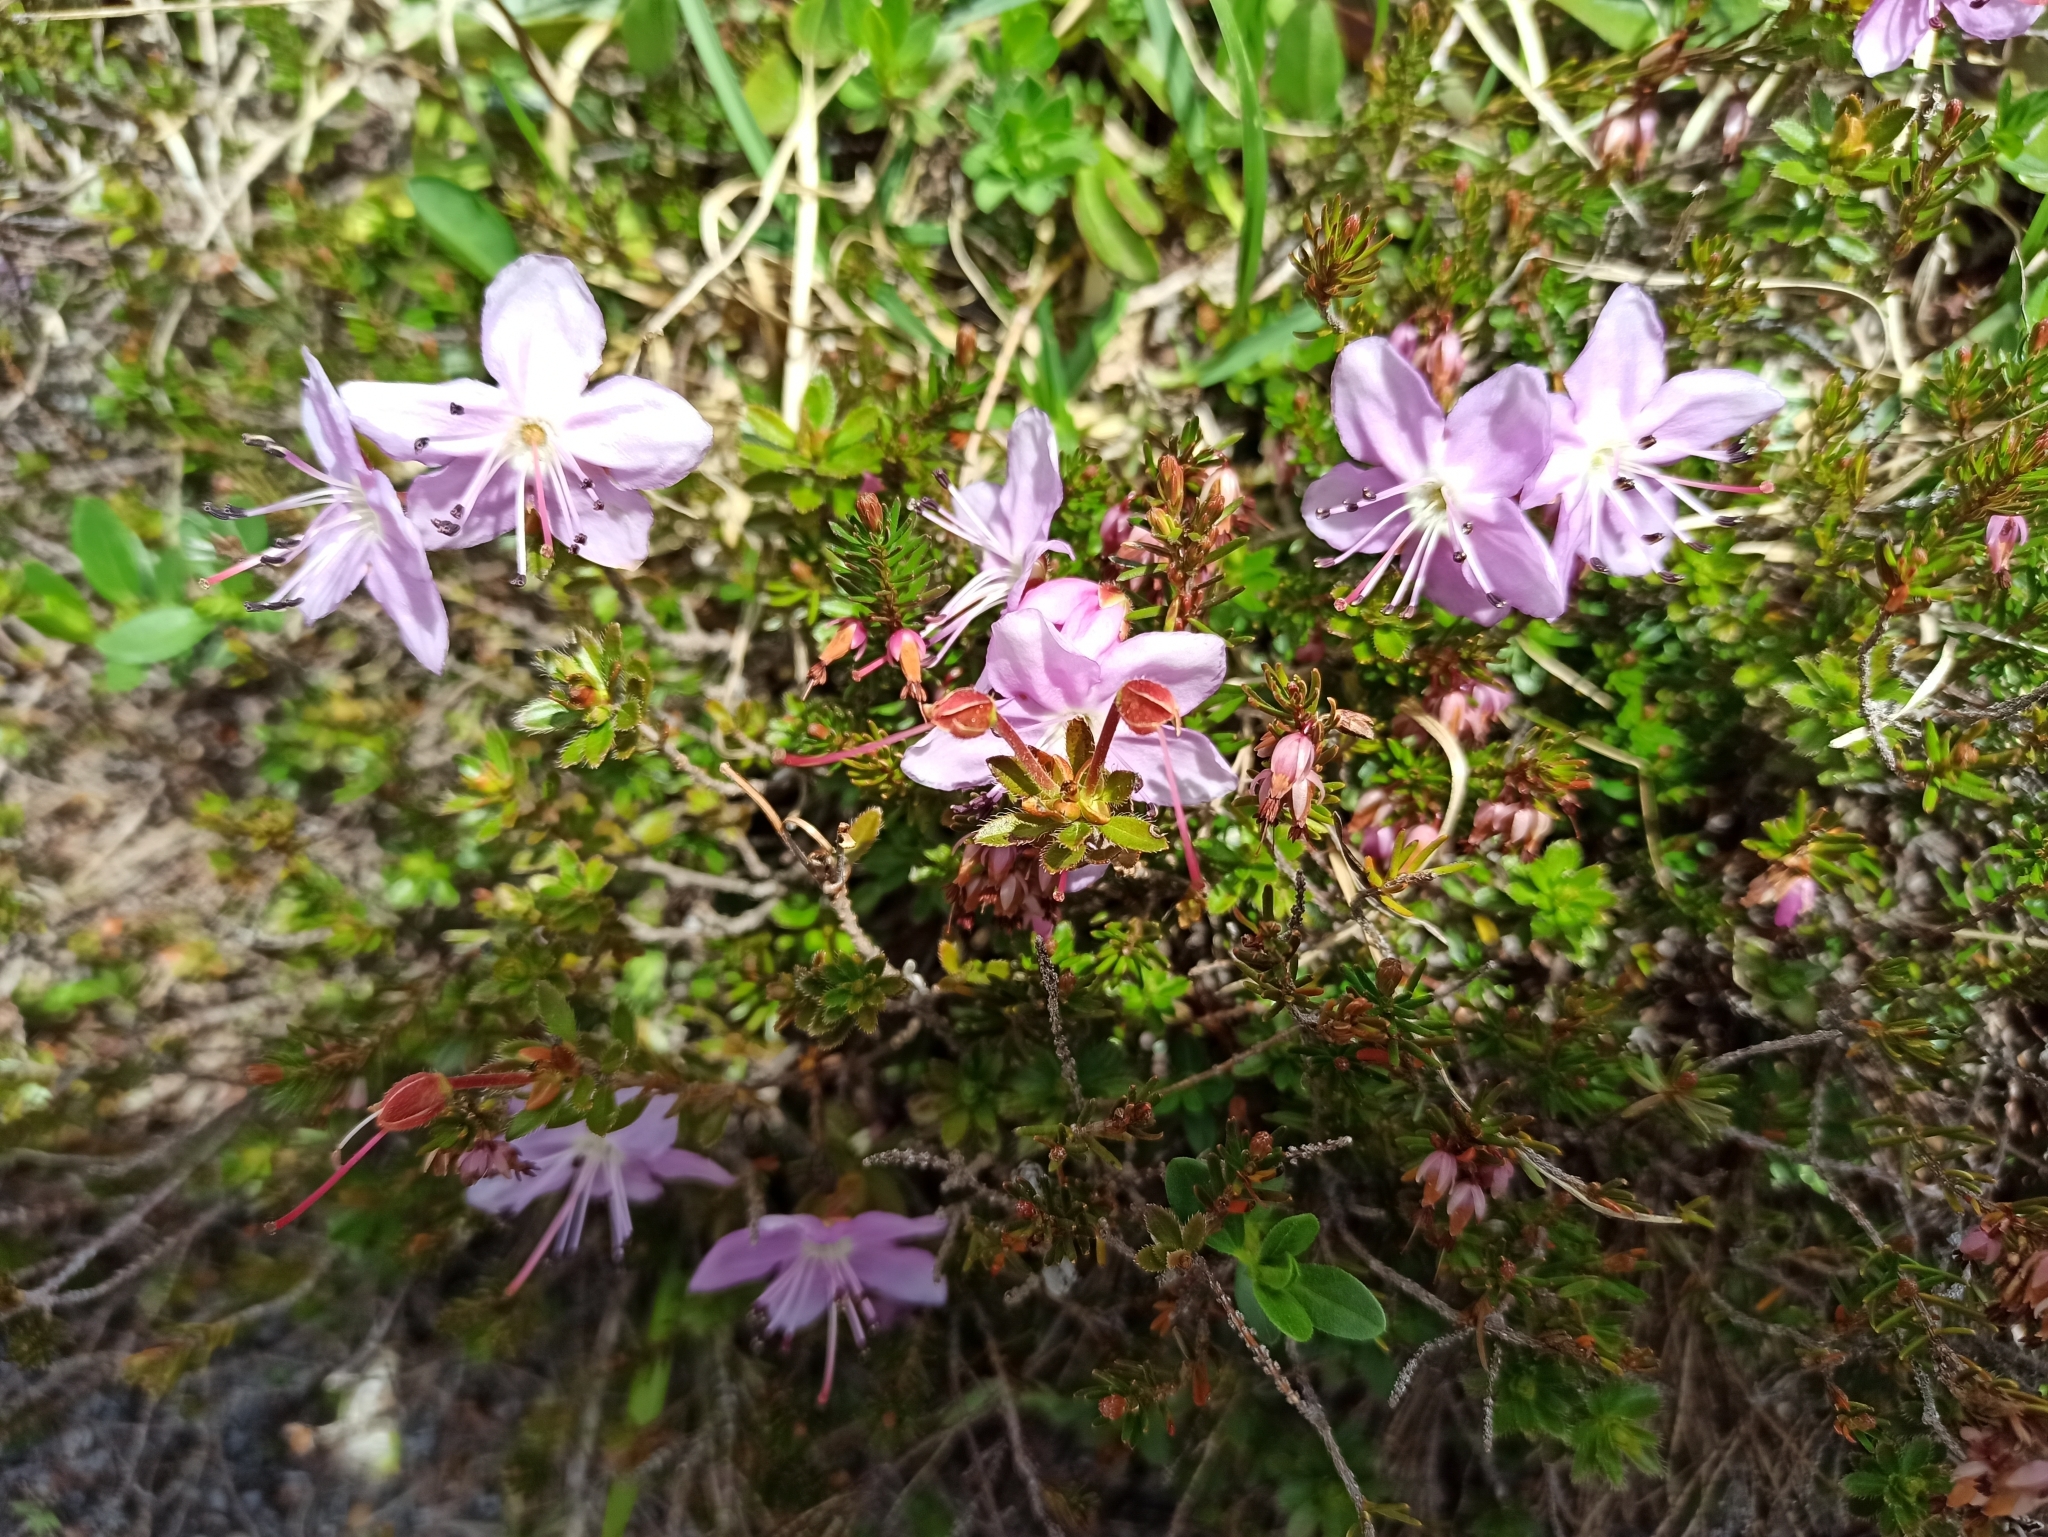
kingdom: Plantae
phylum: Tracheophyta
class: Magnoliopsida
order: Ericales
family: Ericaceae
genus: Rhodothamnus
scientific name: Rhodothamnus chamaecistus
